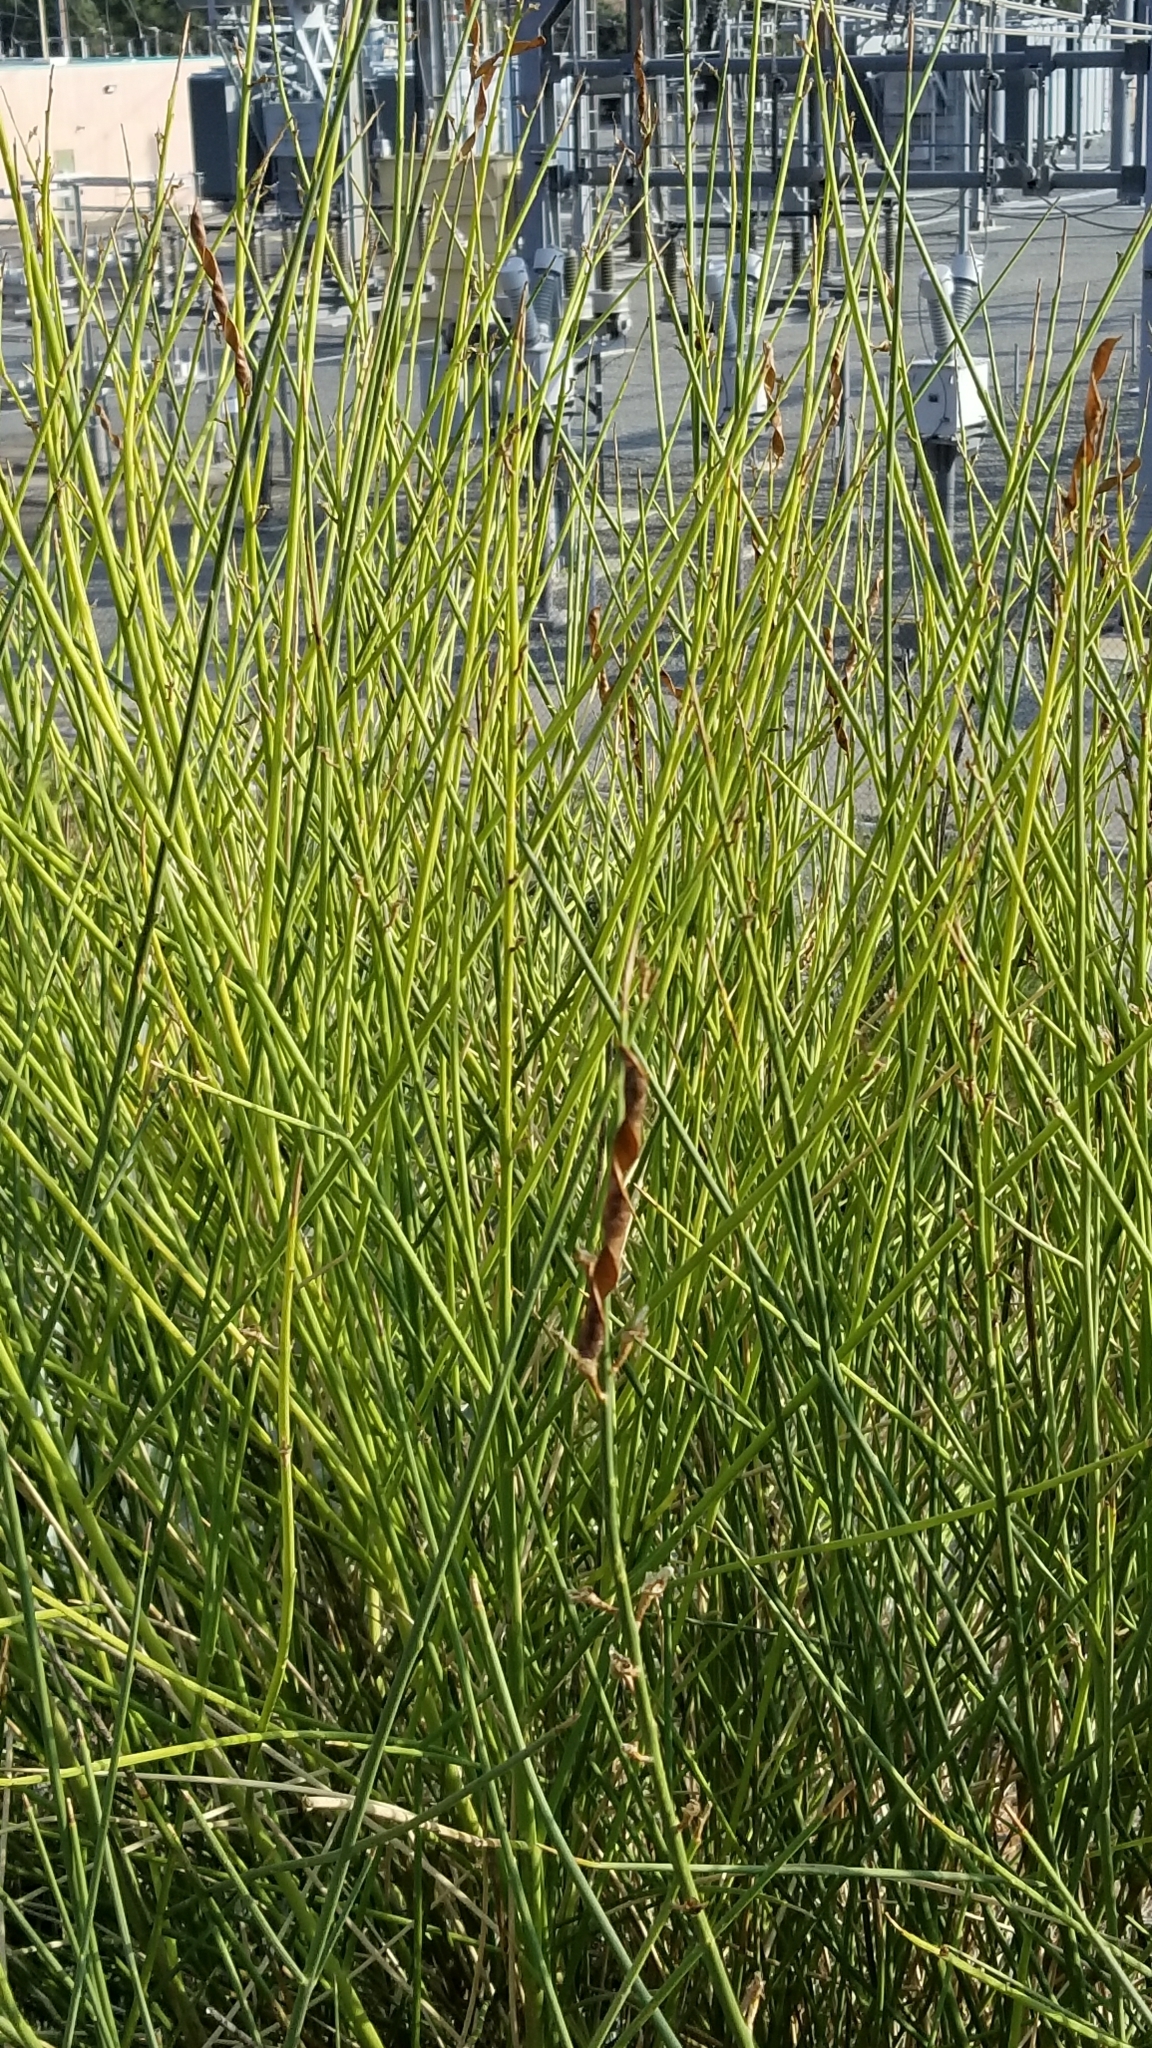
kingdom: Plantae
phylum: Tracheophyta
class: Magnoliopsida
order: Fabales
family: Fabaceae
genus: Spartium
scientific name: Spartium junceum
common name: Spanish broom
